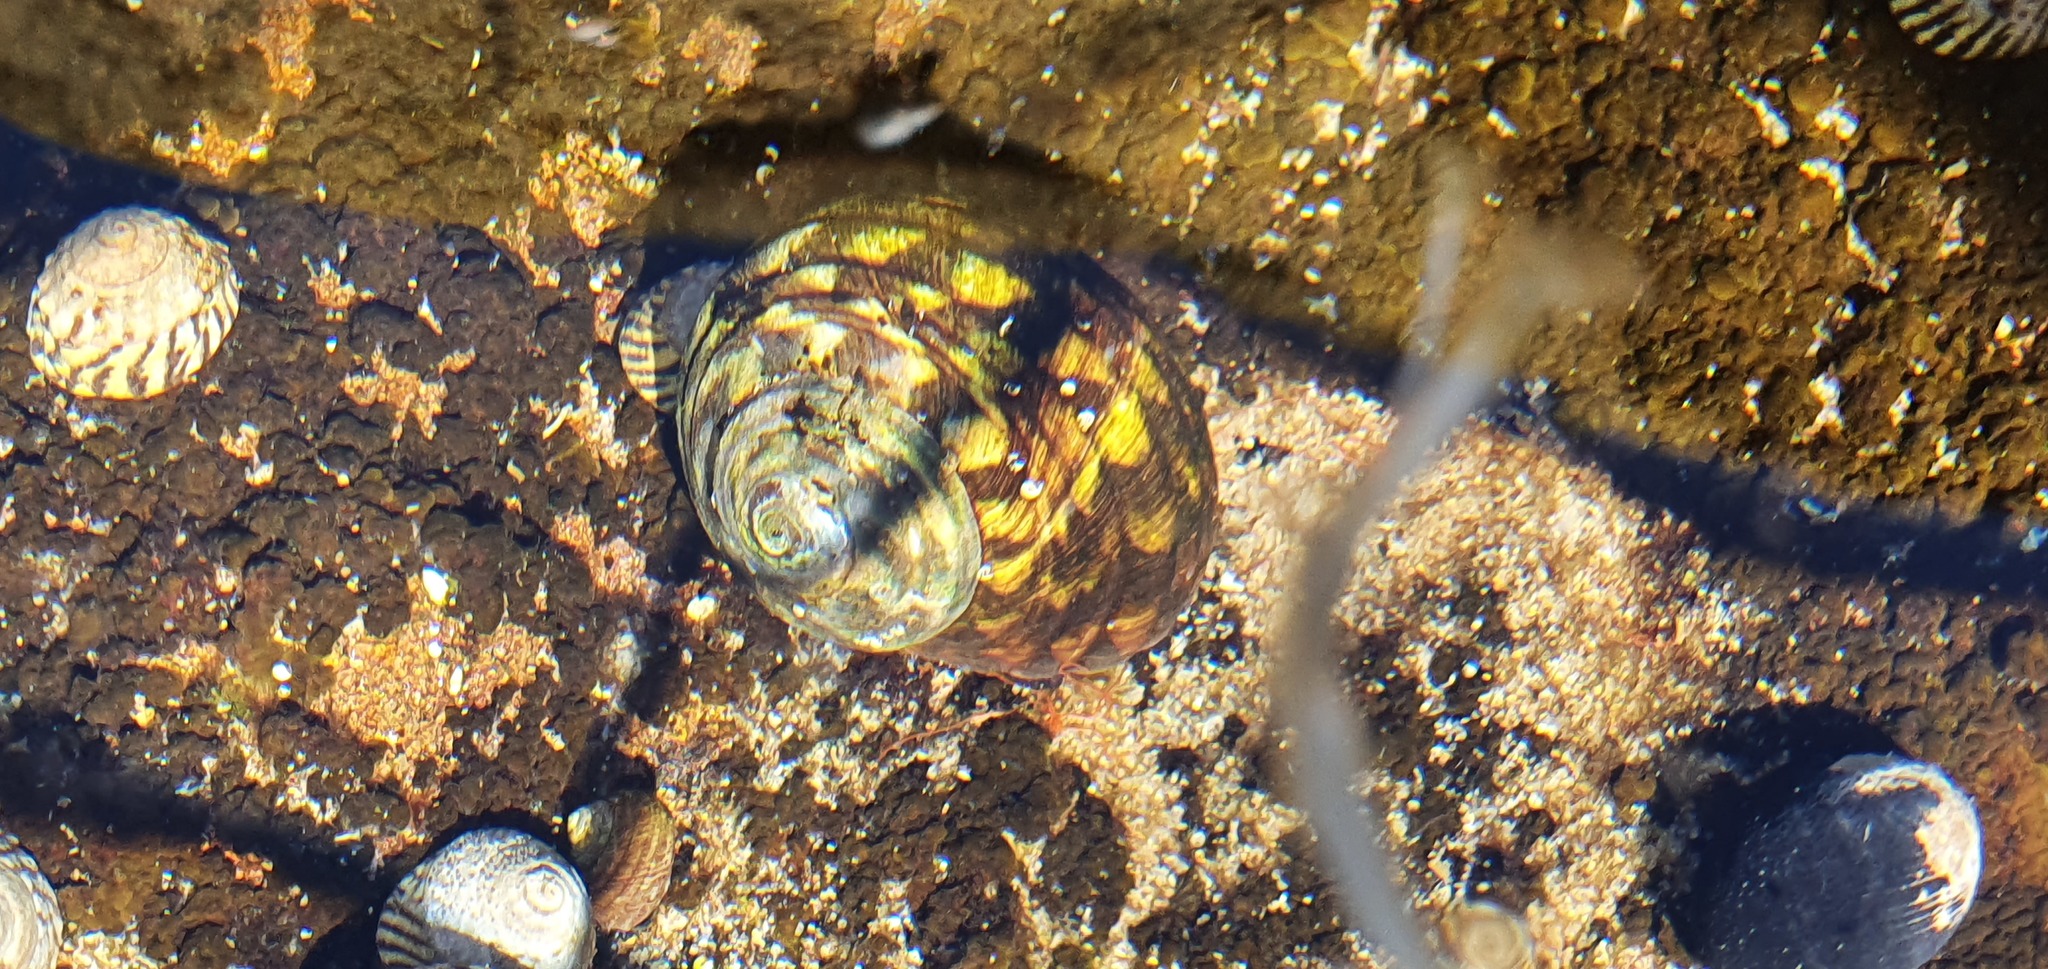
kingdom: Animalia
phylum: Mollusca
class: Gastropoda
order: Trochida
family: Turbinidae
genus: Lunella
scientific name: Lunella undulata
